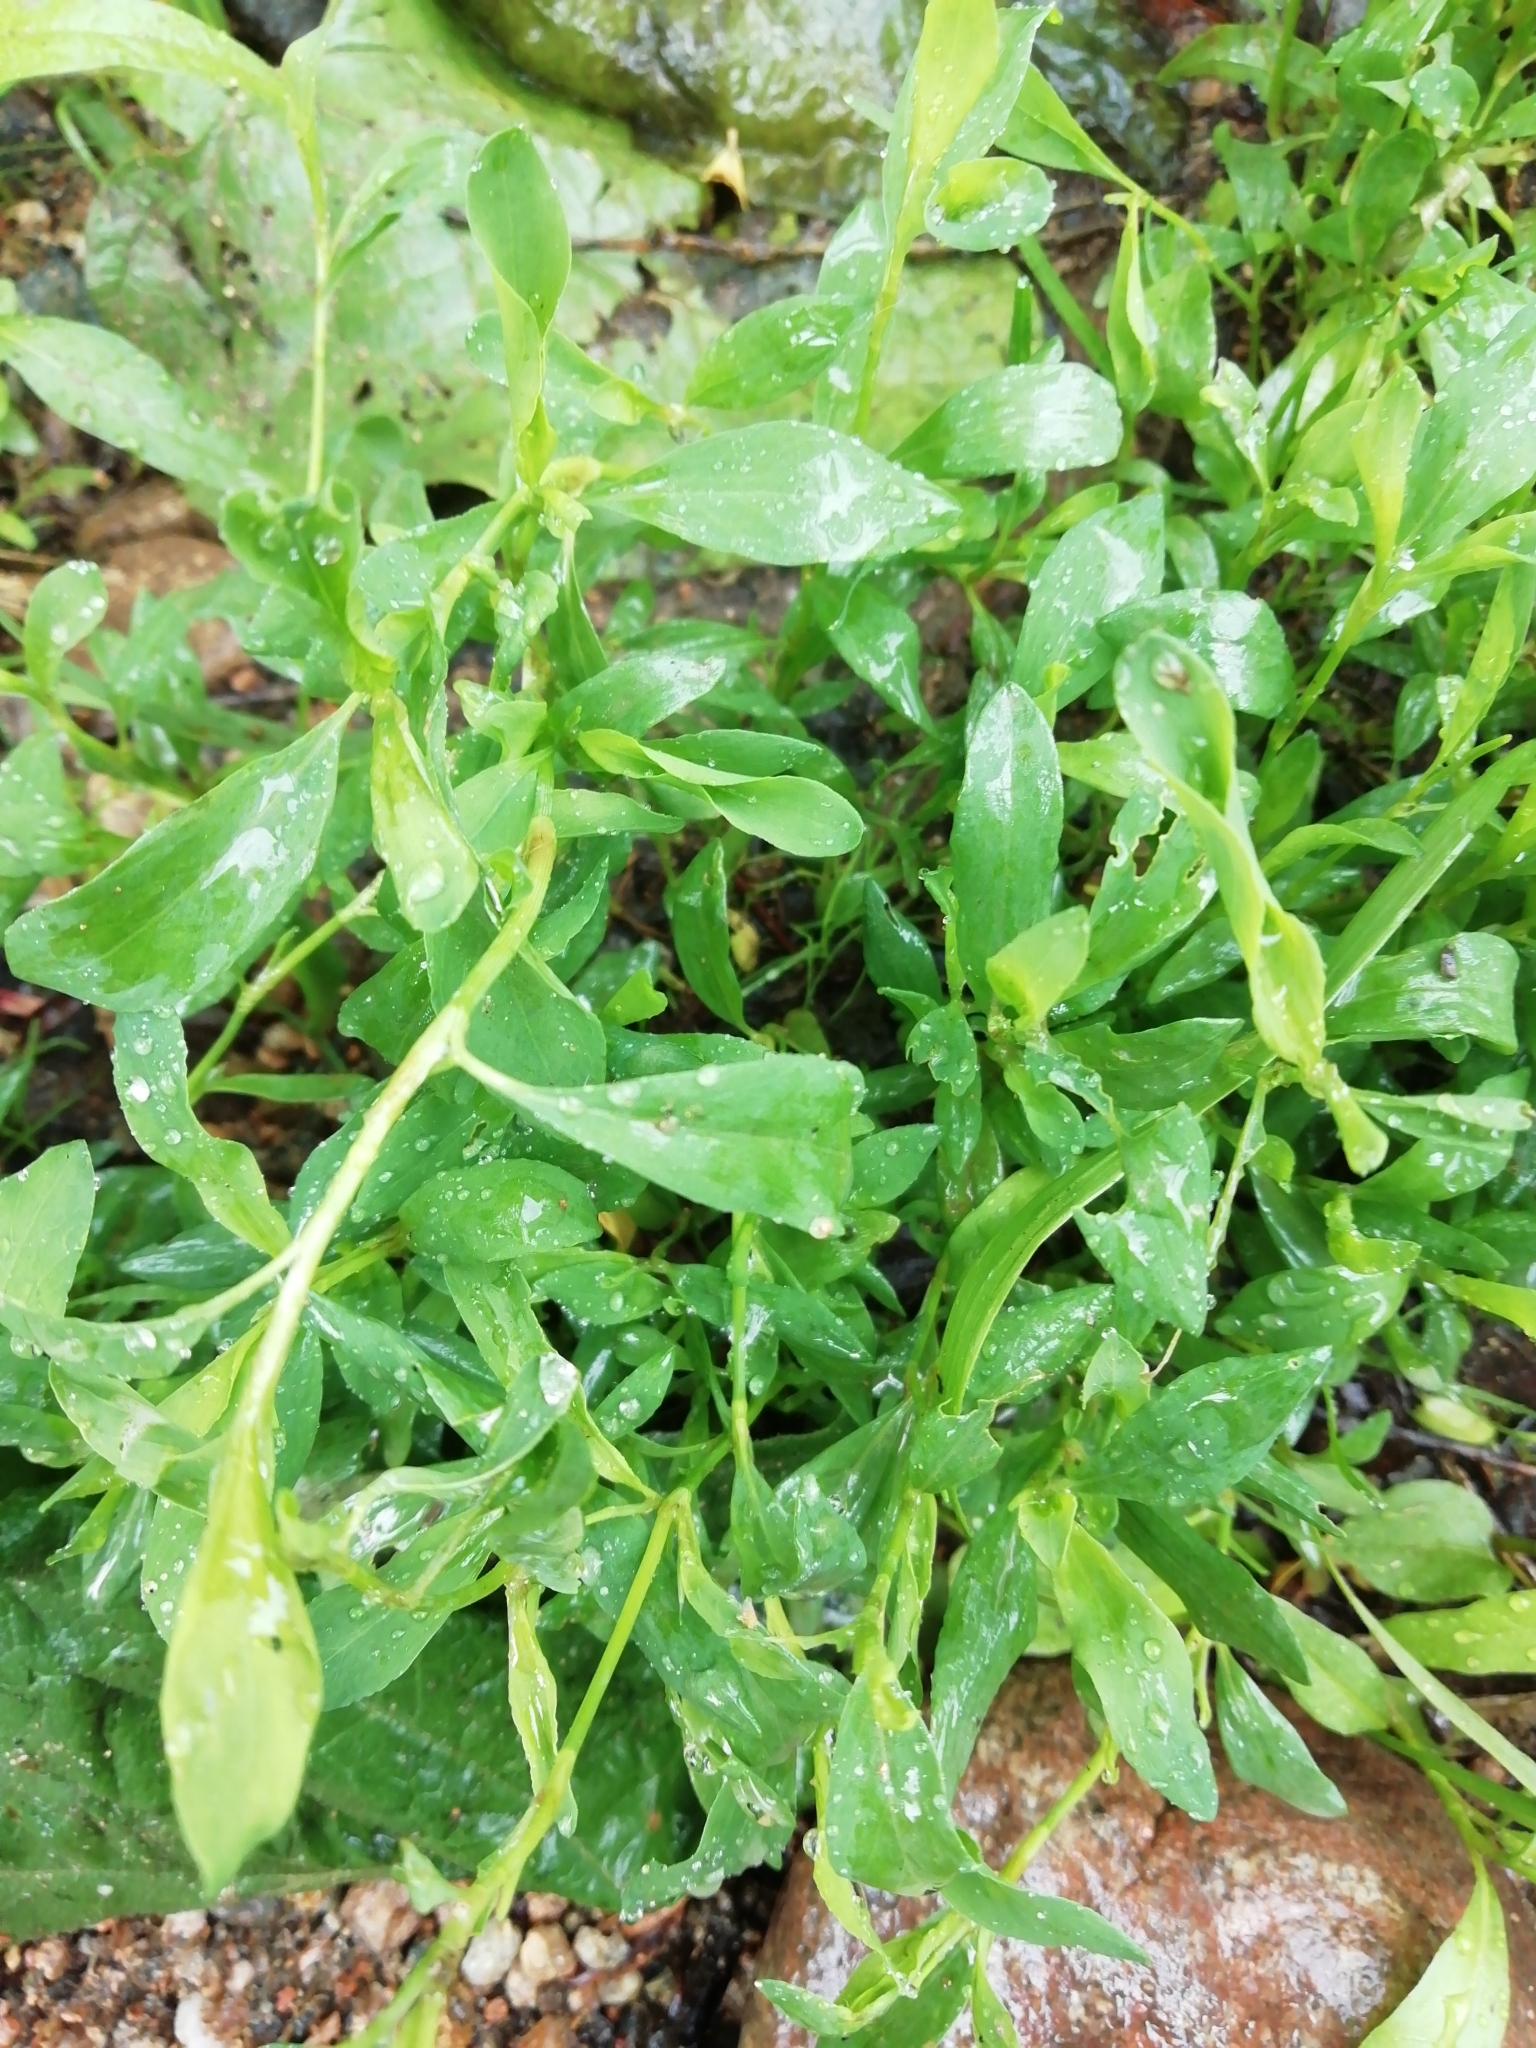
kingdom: Plantae
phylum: Tracheophyta
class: Magnoliopsida
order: Caryophyllales
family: Polygonaceae
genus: Polygonum
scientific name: Polygonum
